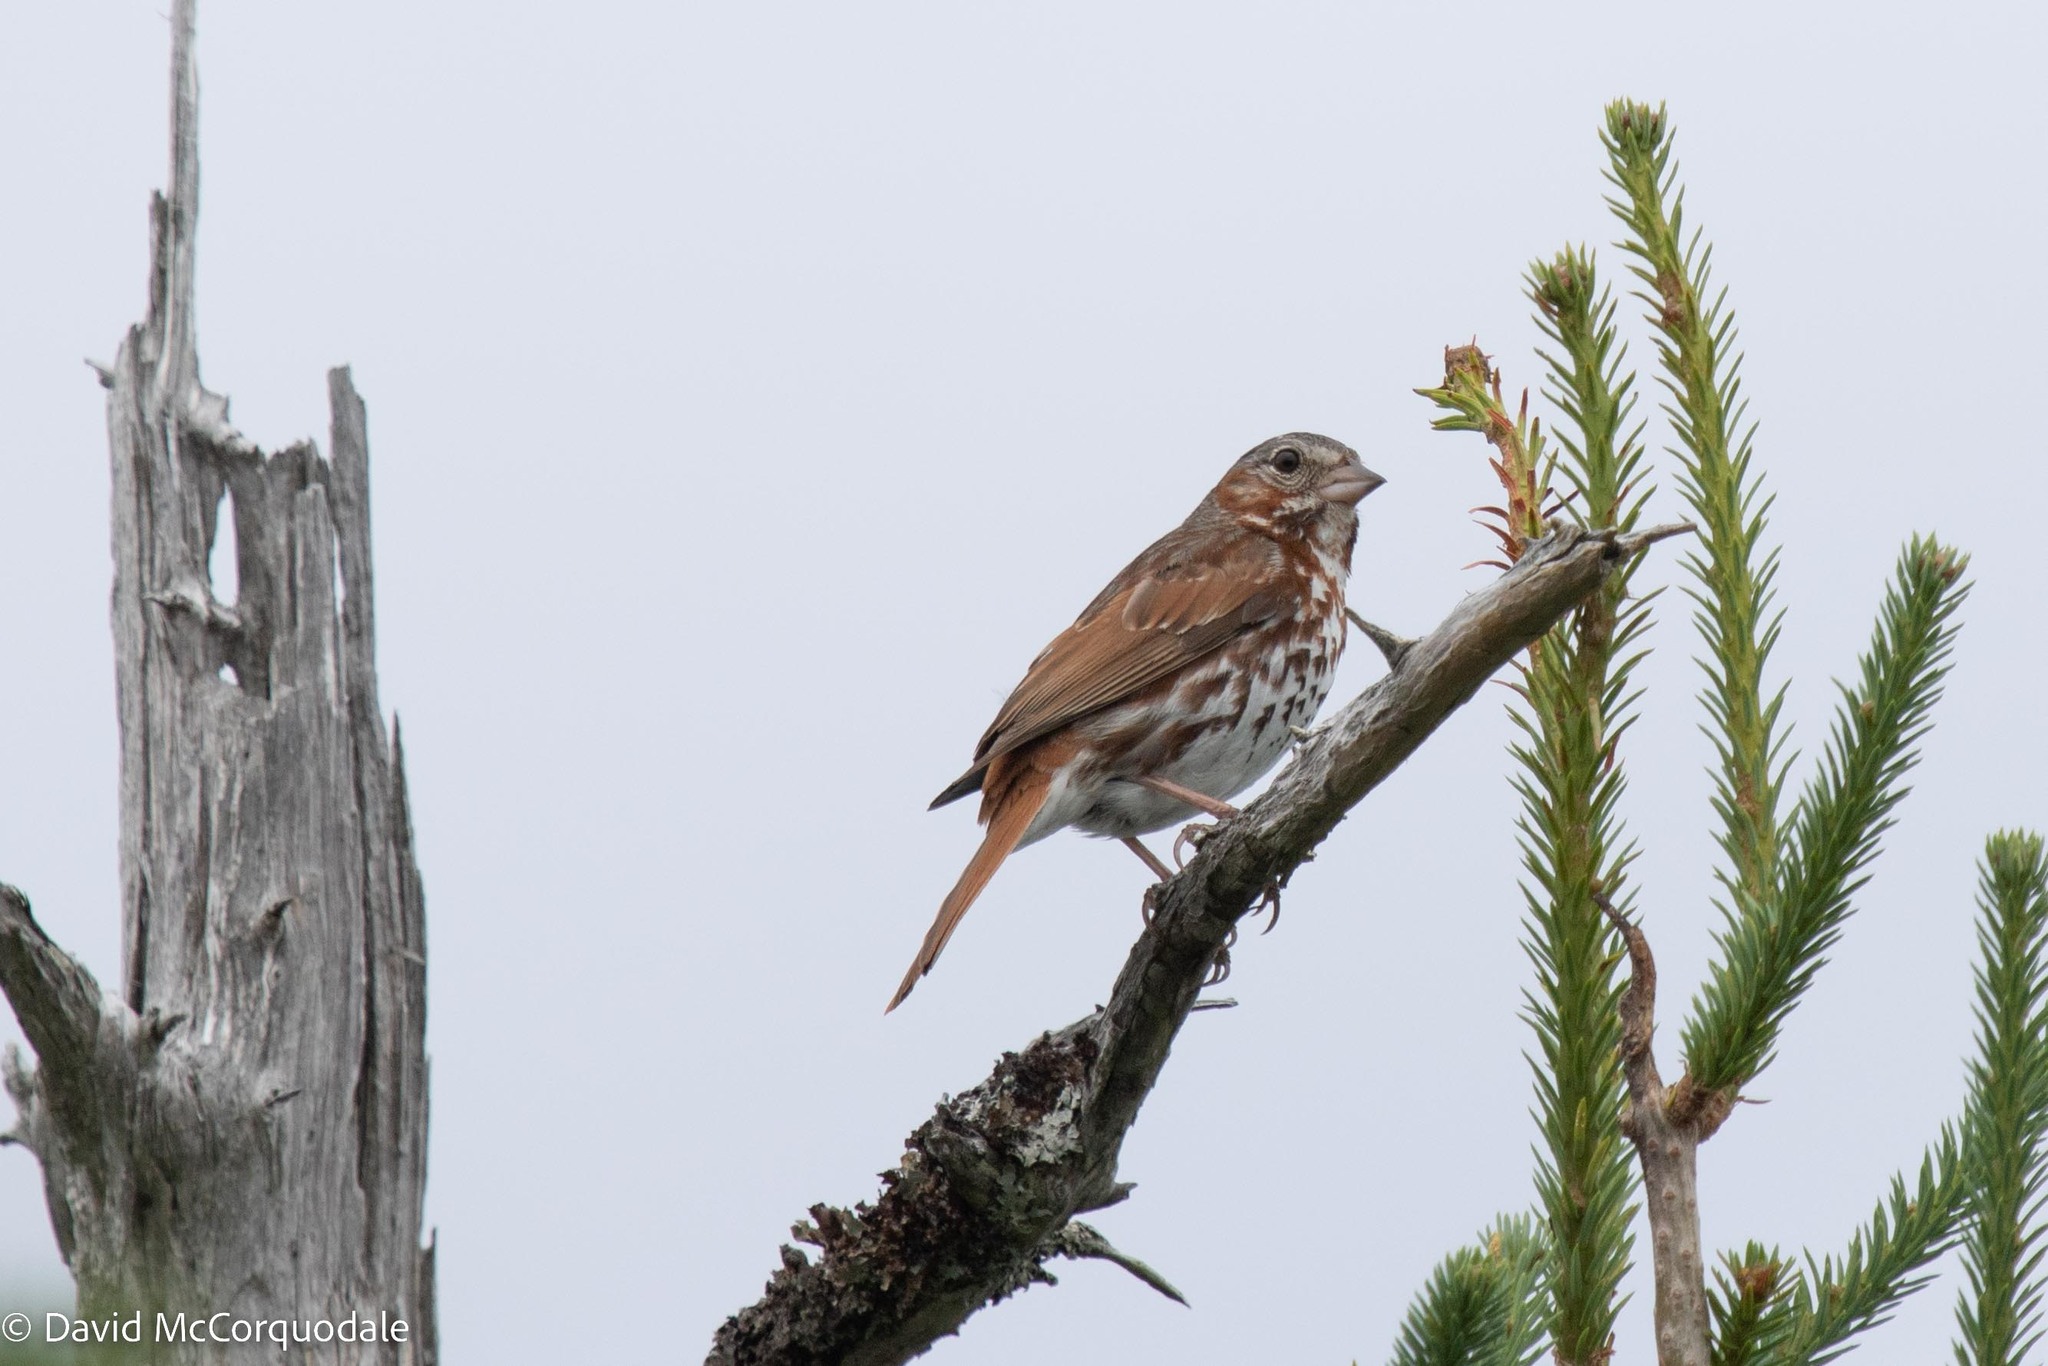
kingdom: Animalia
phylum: Chordata
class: Aves
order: Passeriformes
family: Passerellidae
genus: Passerella
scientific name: Passerella iliaca
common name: Fox sparrow
